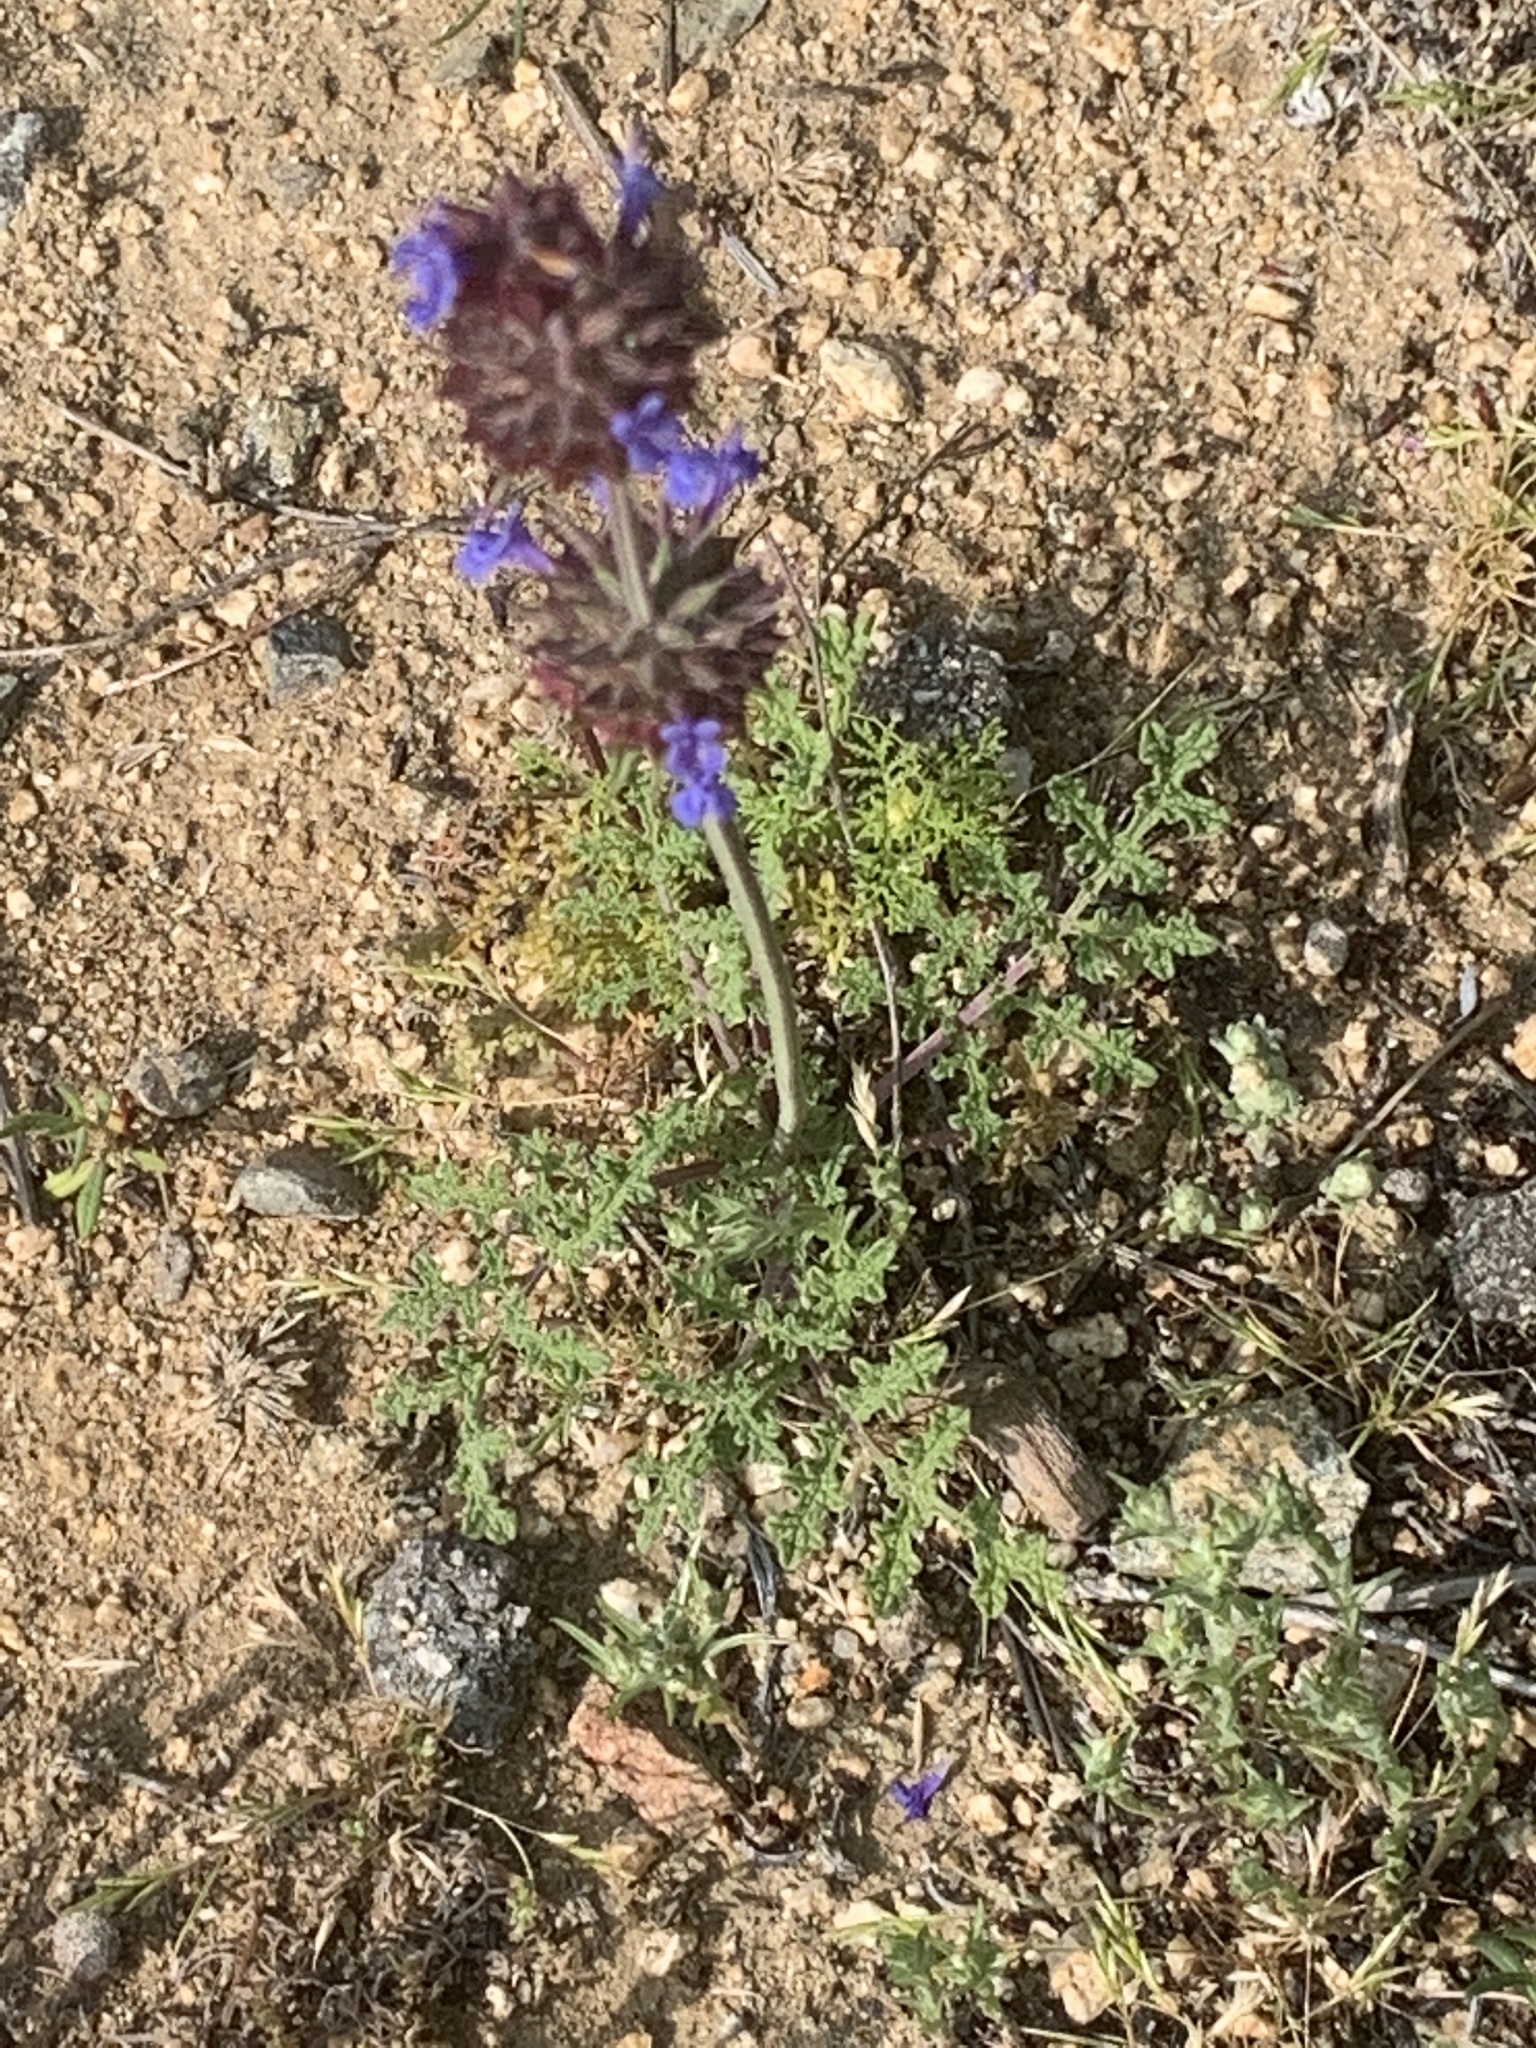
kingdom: Plantae
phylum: Tracheophyta
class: Magnoliopsida
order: Lamiales
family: Lamiaceae
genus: Salvia
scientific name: Salvia columbariae
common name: Chia
